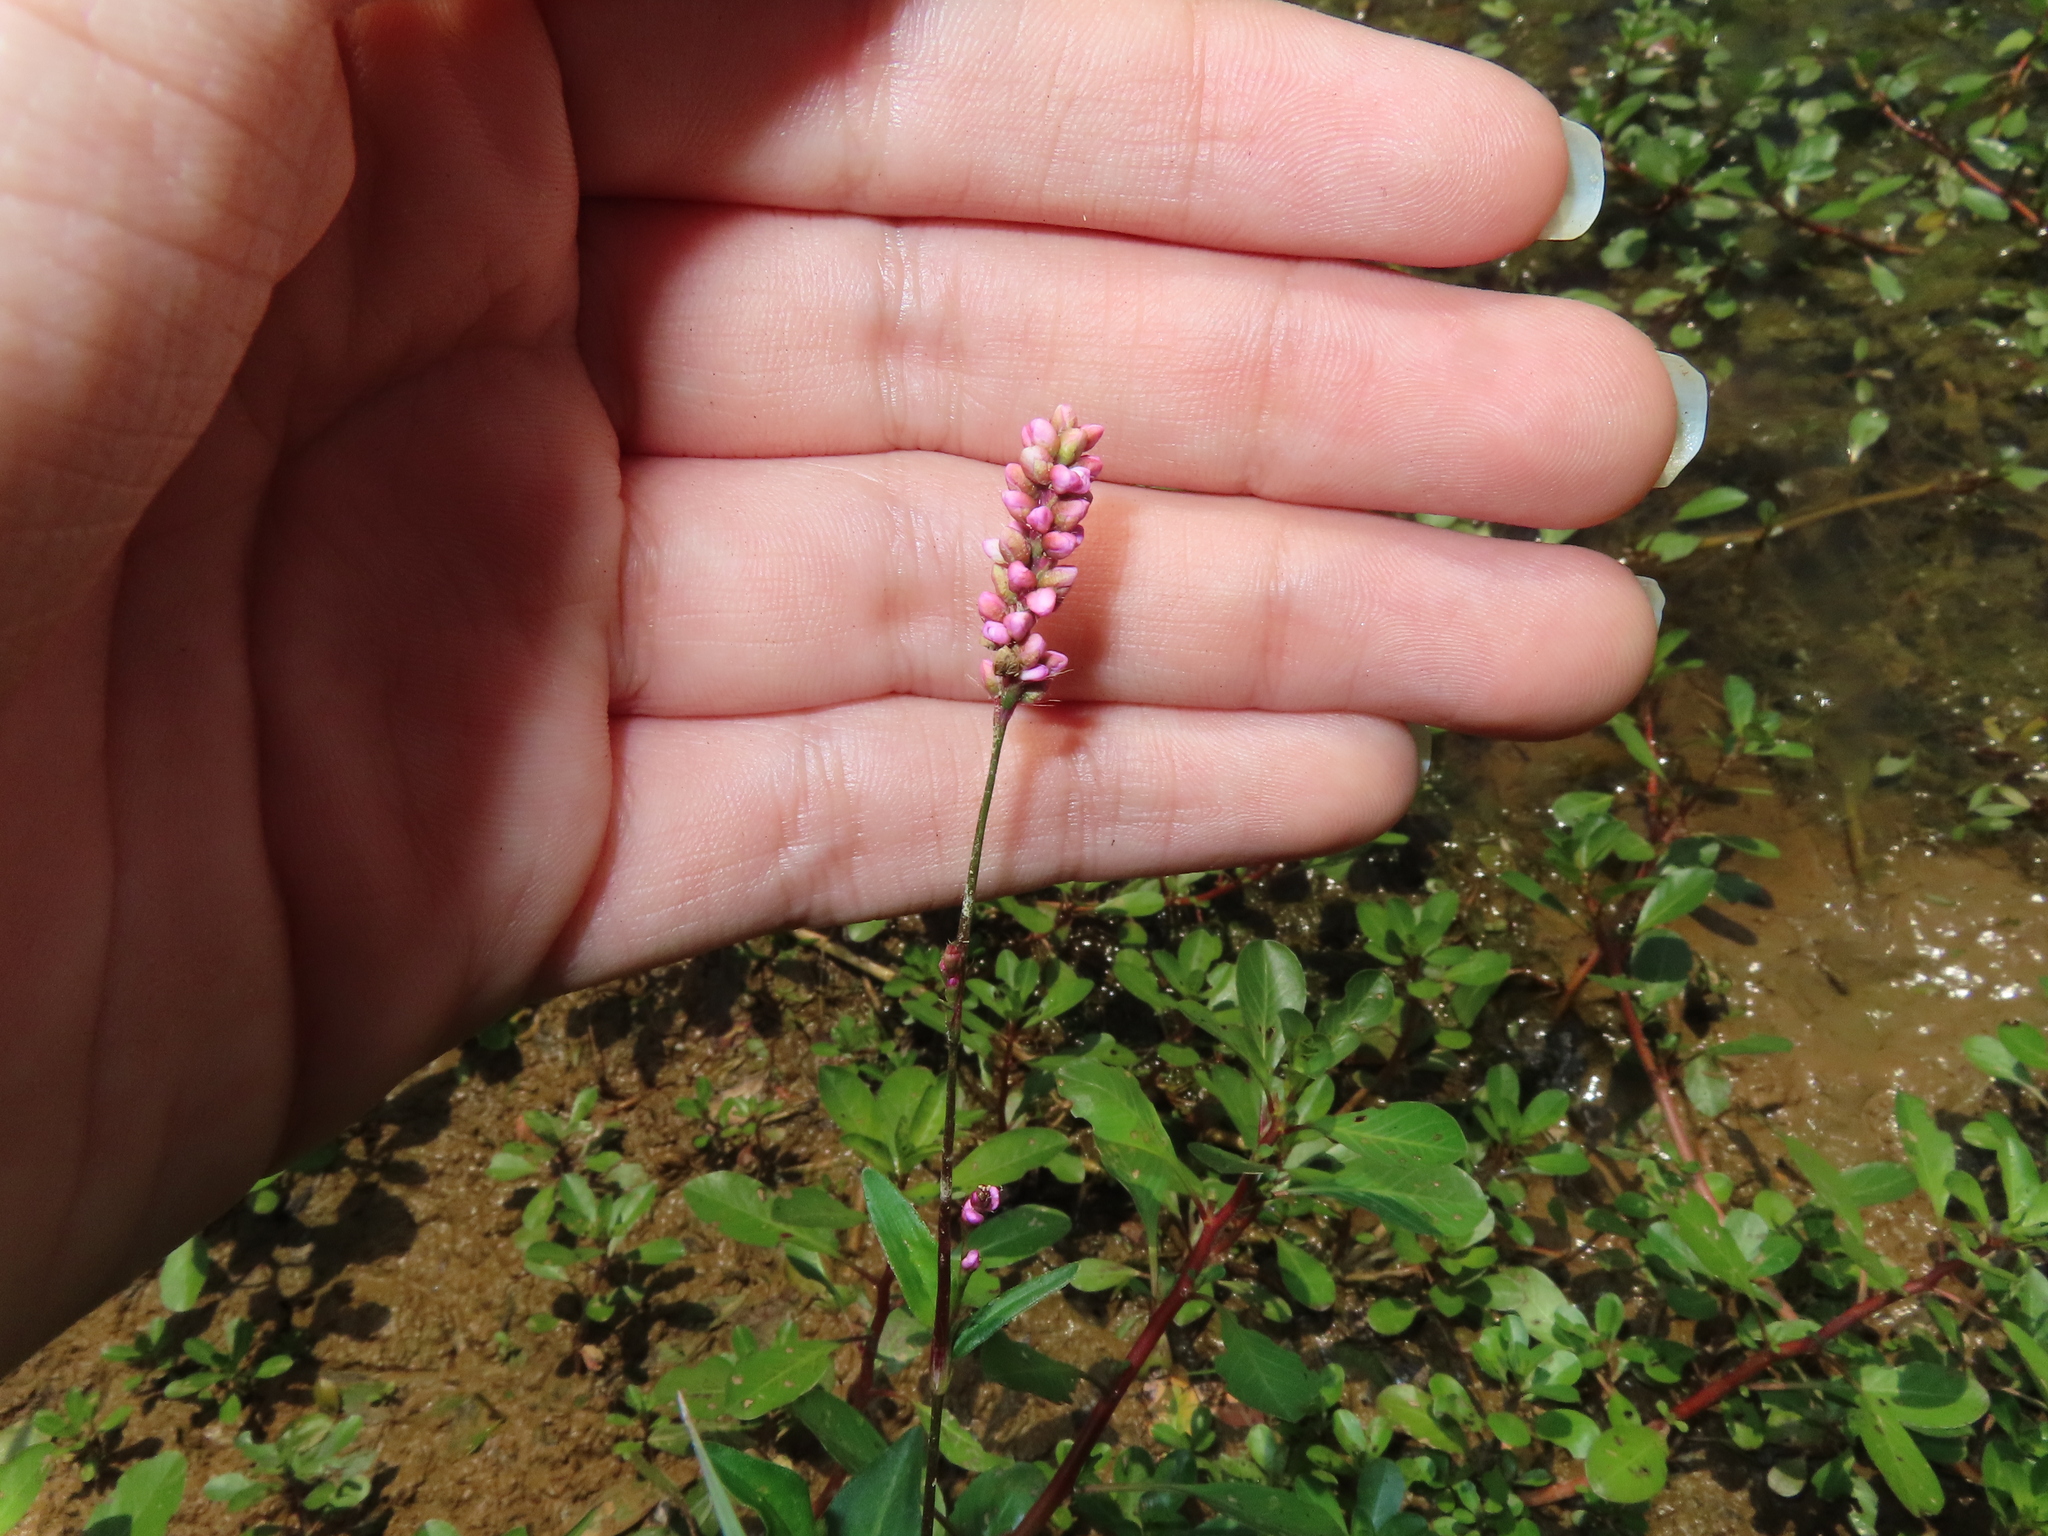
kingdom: Plantae
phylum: Tracheophyta
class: Magnoliopsida
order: Caryophyllales
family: Polygonaceae
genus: Persicaria
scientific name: Persicaria longiseta
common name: Bristly lady's-thumb
